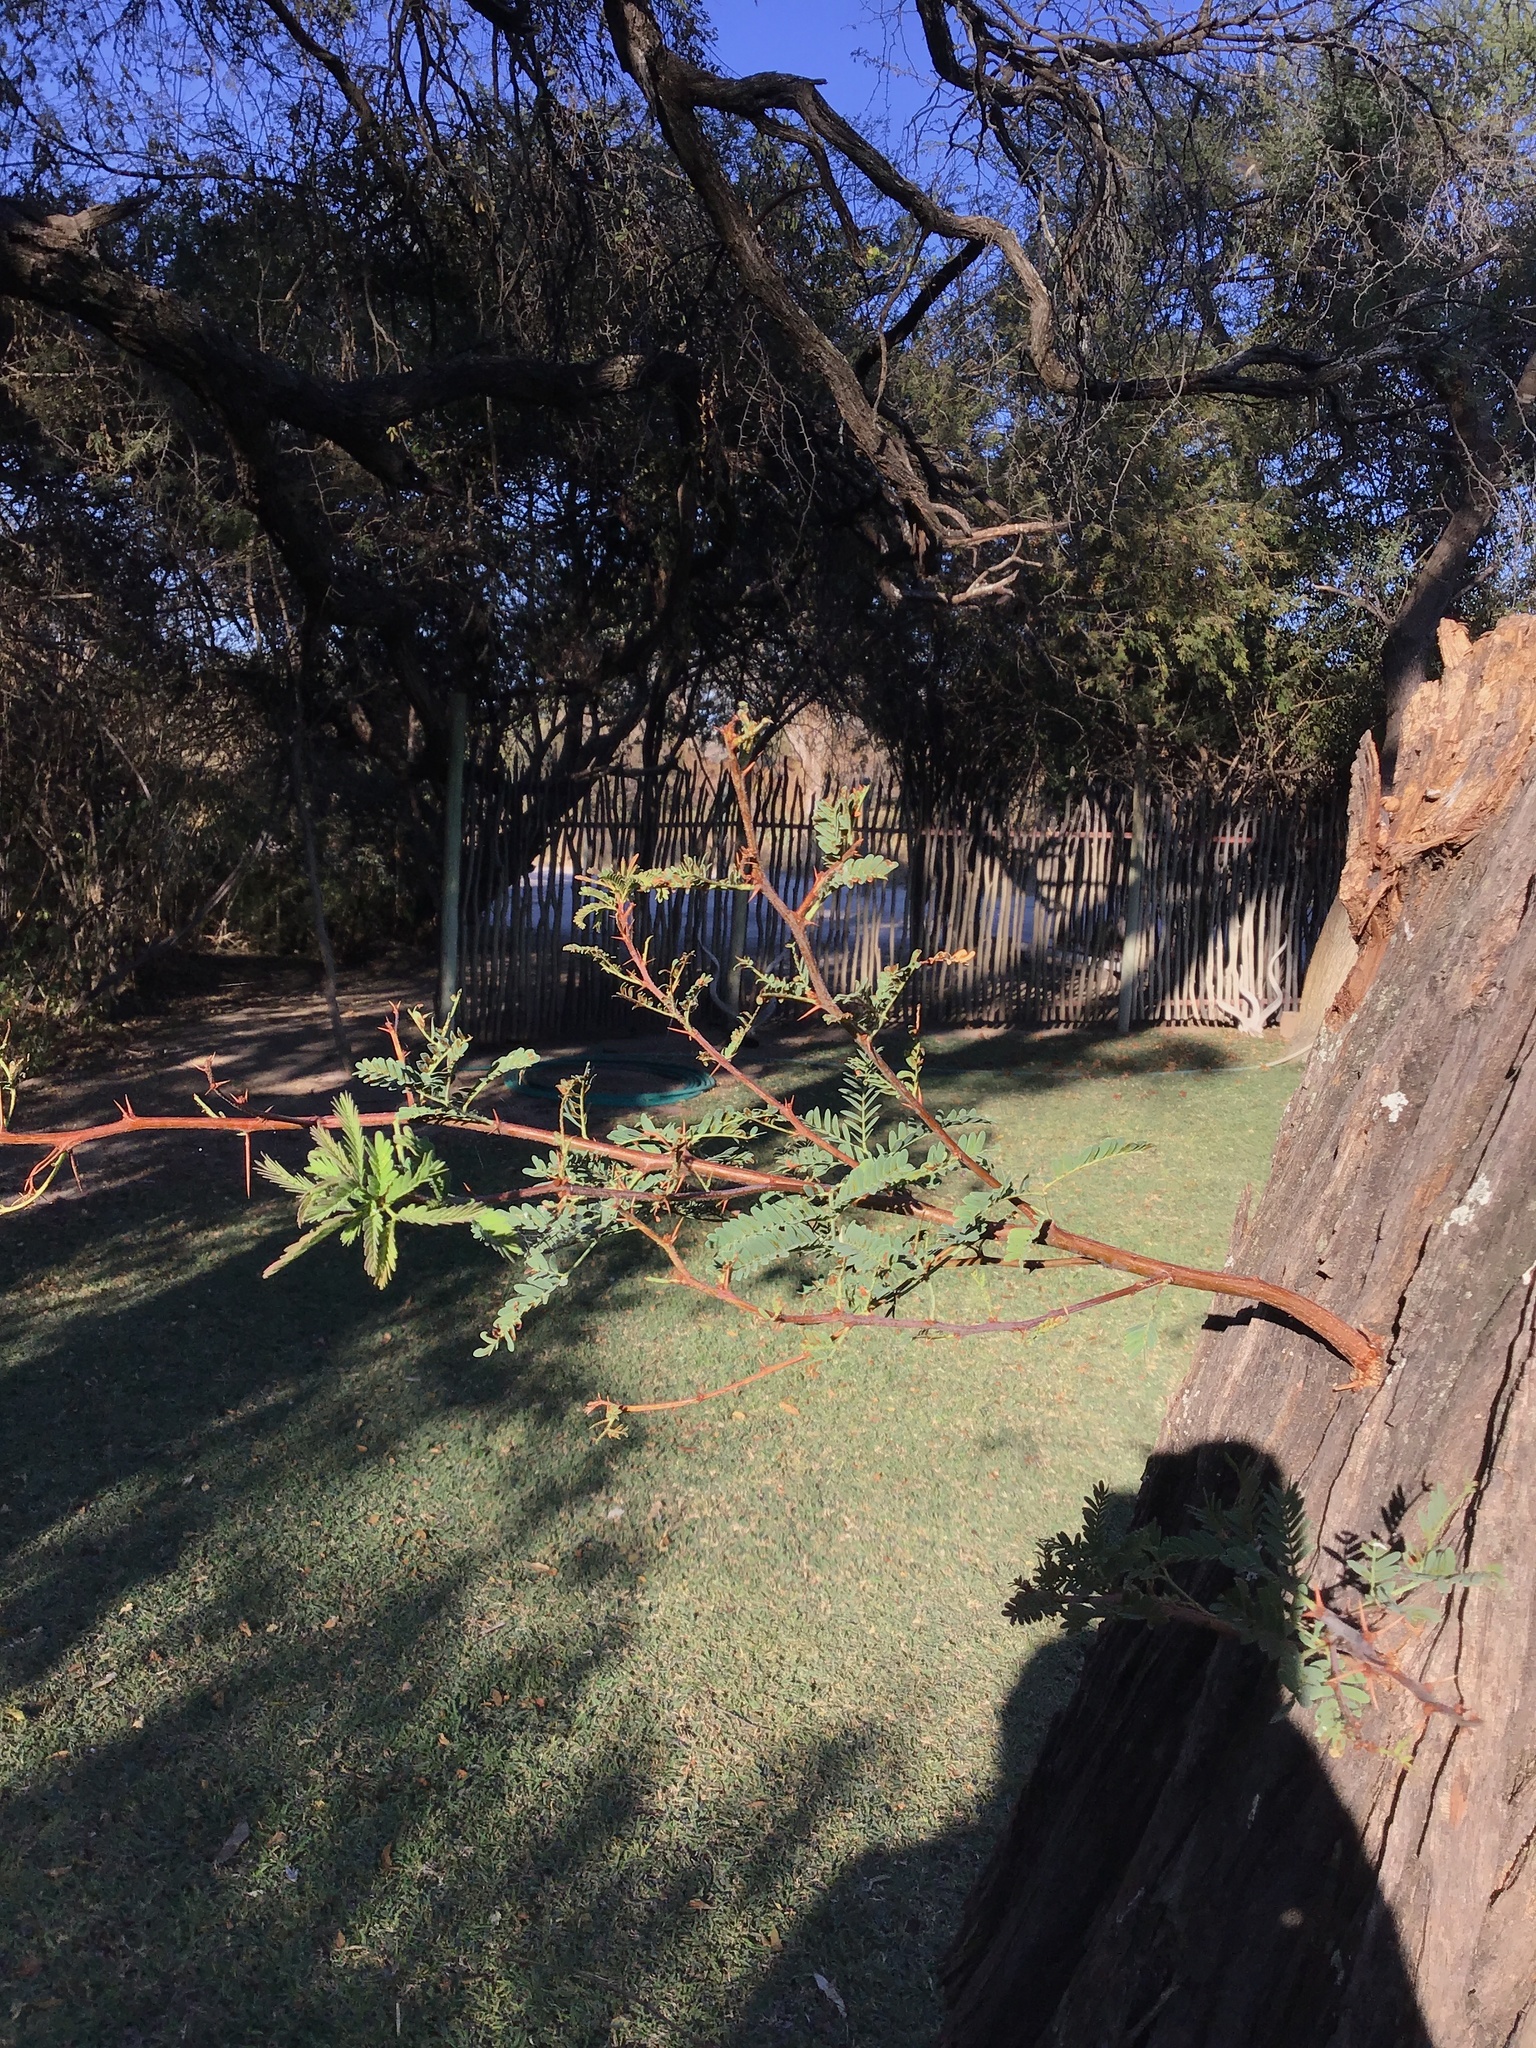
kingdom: Plantae
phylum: Tracheophyta
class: Magnoliopsida
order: Fabales
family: Fabaceae
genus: Vachellia
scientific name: Vachellia erioloba
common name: Camel thorn
